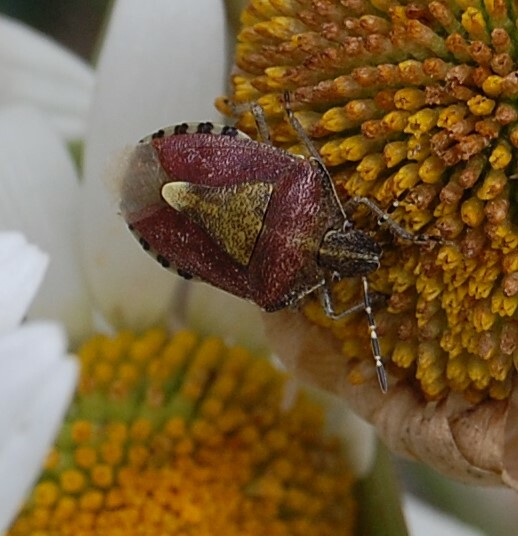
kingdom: Animalia
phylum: Arthropoda
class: Insecta
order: Hemiptera
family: Pentatomidae
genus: Dolycoris
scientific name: Dolycoris baccarum
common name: Sloe bug
